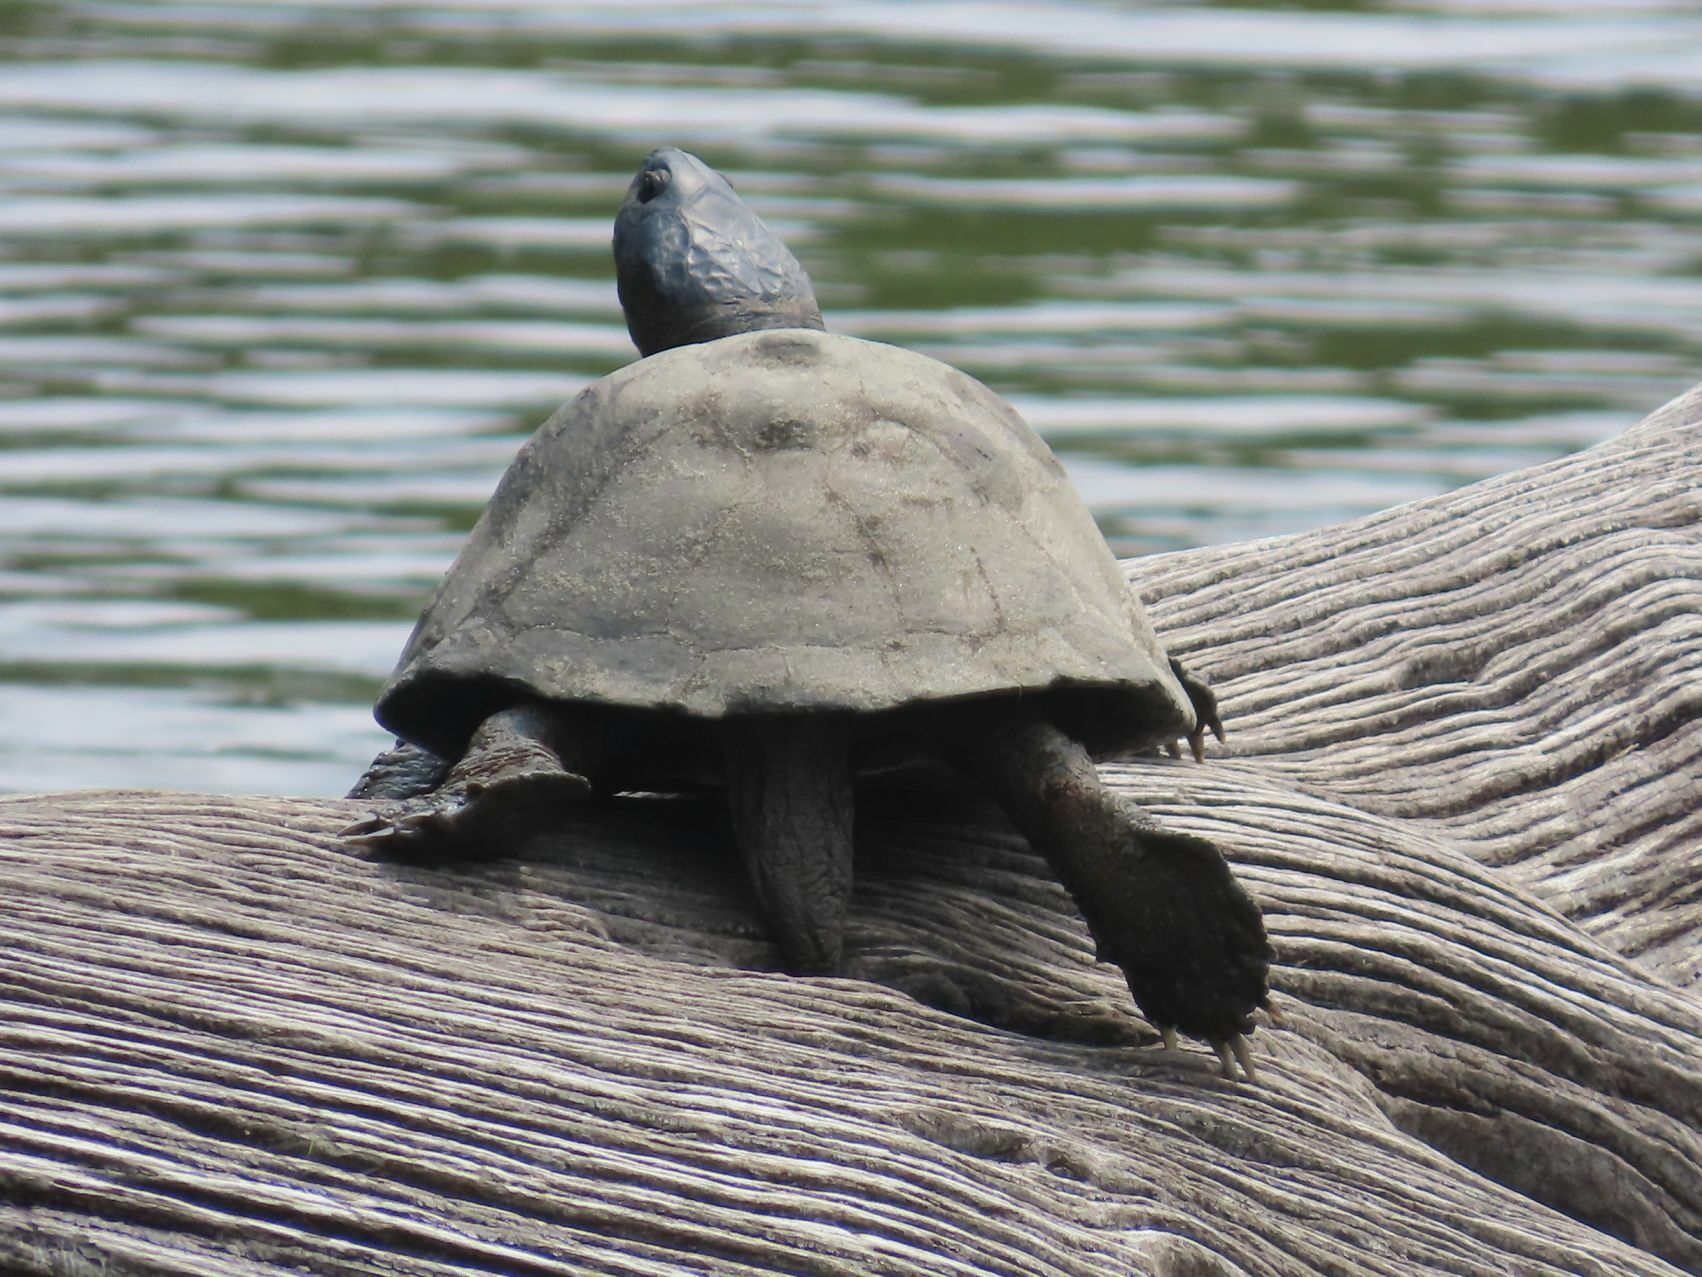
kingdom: Animalia
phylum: Chordata
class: Testudines
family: Pelomedusidae
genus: Pelusios
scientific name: Pelusios sinuatus
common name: Serrated hinged terrapin
